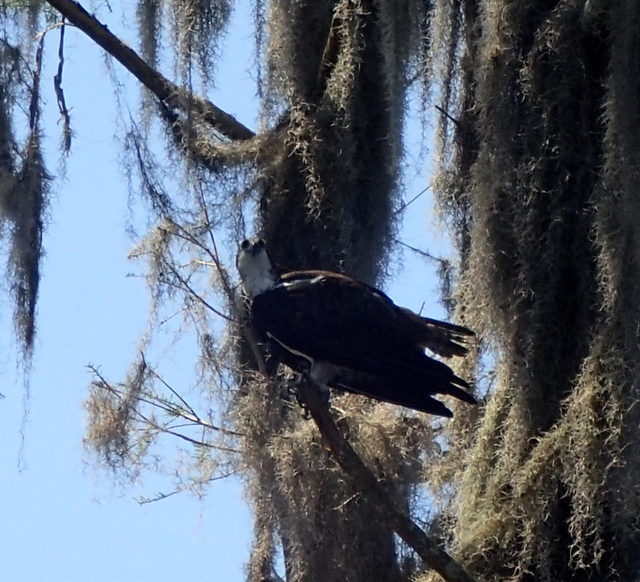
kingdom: Animalia
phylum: Chordata
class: Aves
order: Accipitriformes
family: Pandionidae
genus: Pandion
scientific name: Pandion haliaetus
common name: Osprey
